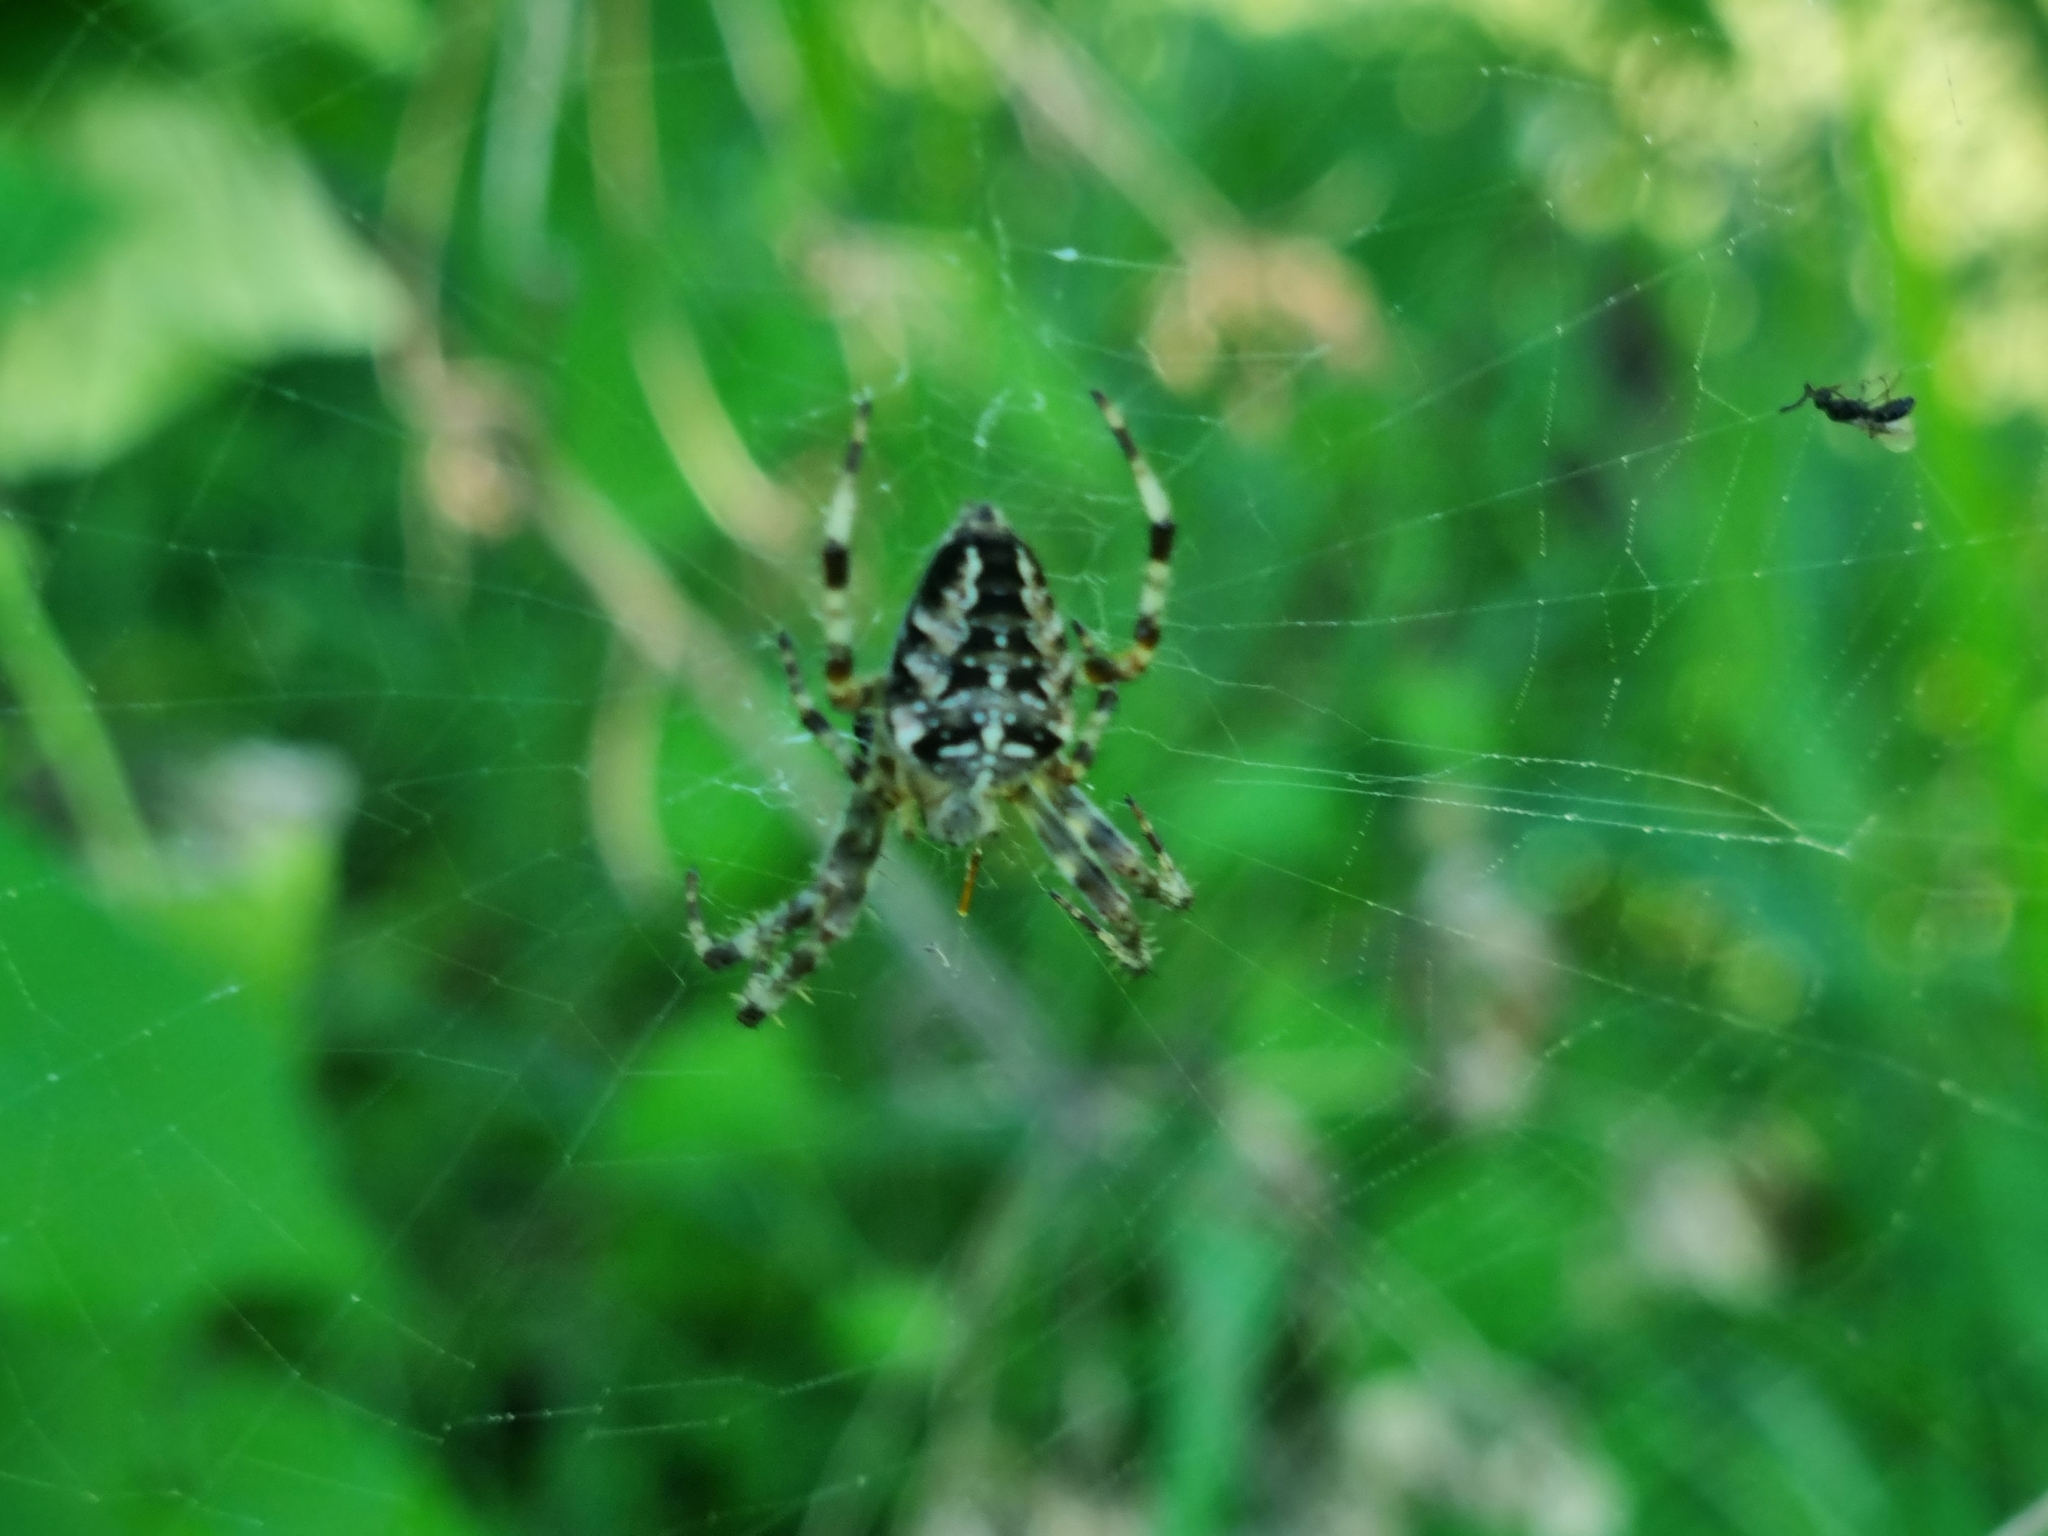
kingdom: Animalia
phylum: Arthropoda
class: Arachnida
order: Araneae
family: Araneidae
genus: Araneus
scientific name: Araneus diadematus
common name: Cross orbweaver
